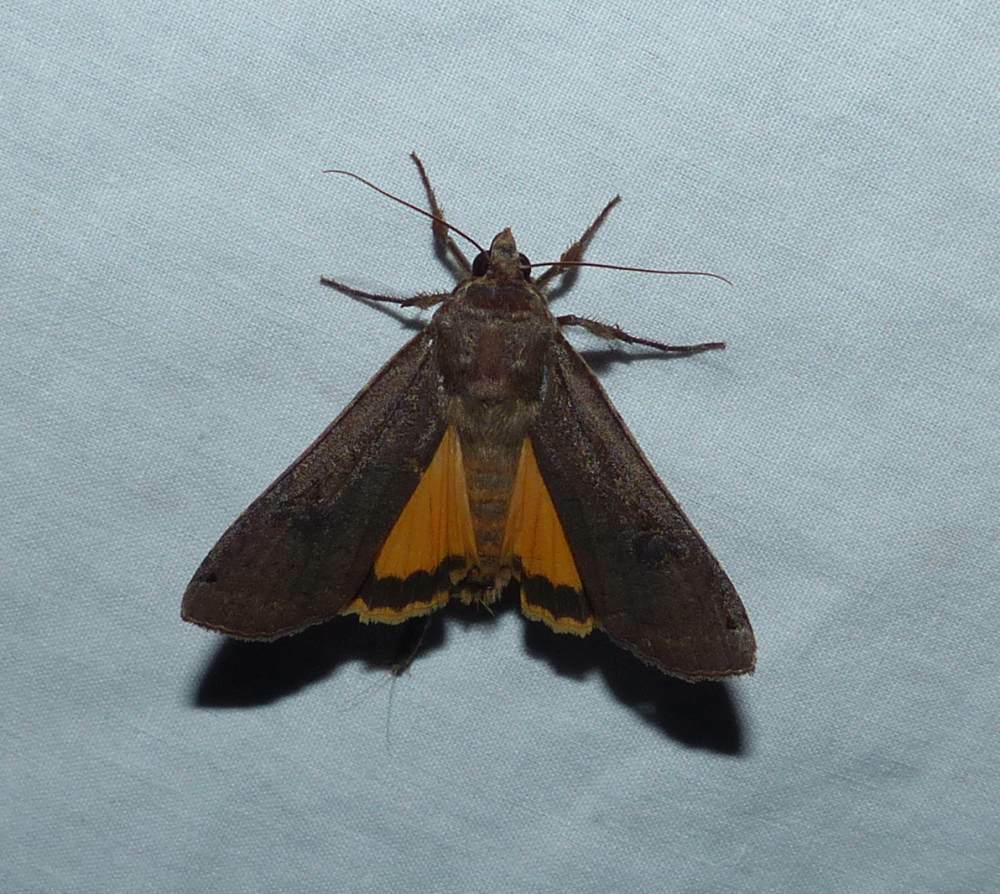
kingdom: Animalia
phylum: Arthropoda
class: Insecta
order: Lepidoptera
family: Noctuidae
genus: Noctua
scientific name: Noctua pronuba
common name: Large yellow underwing
